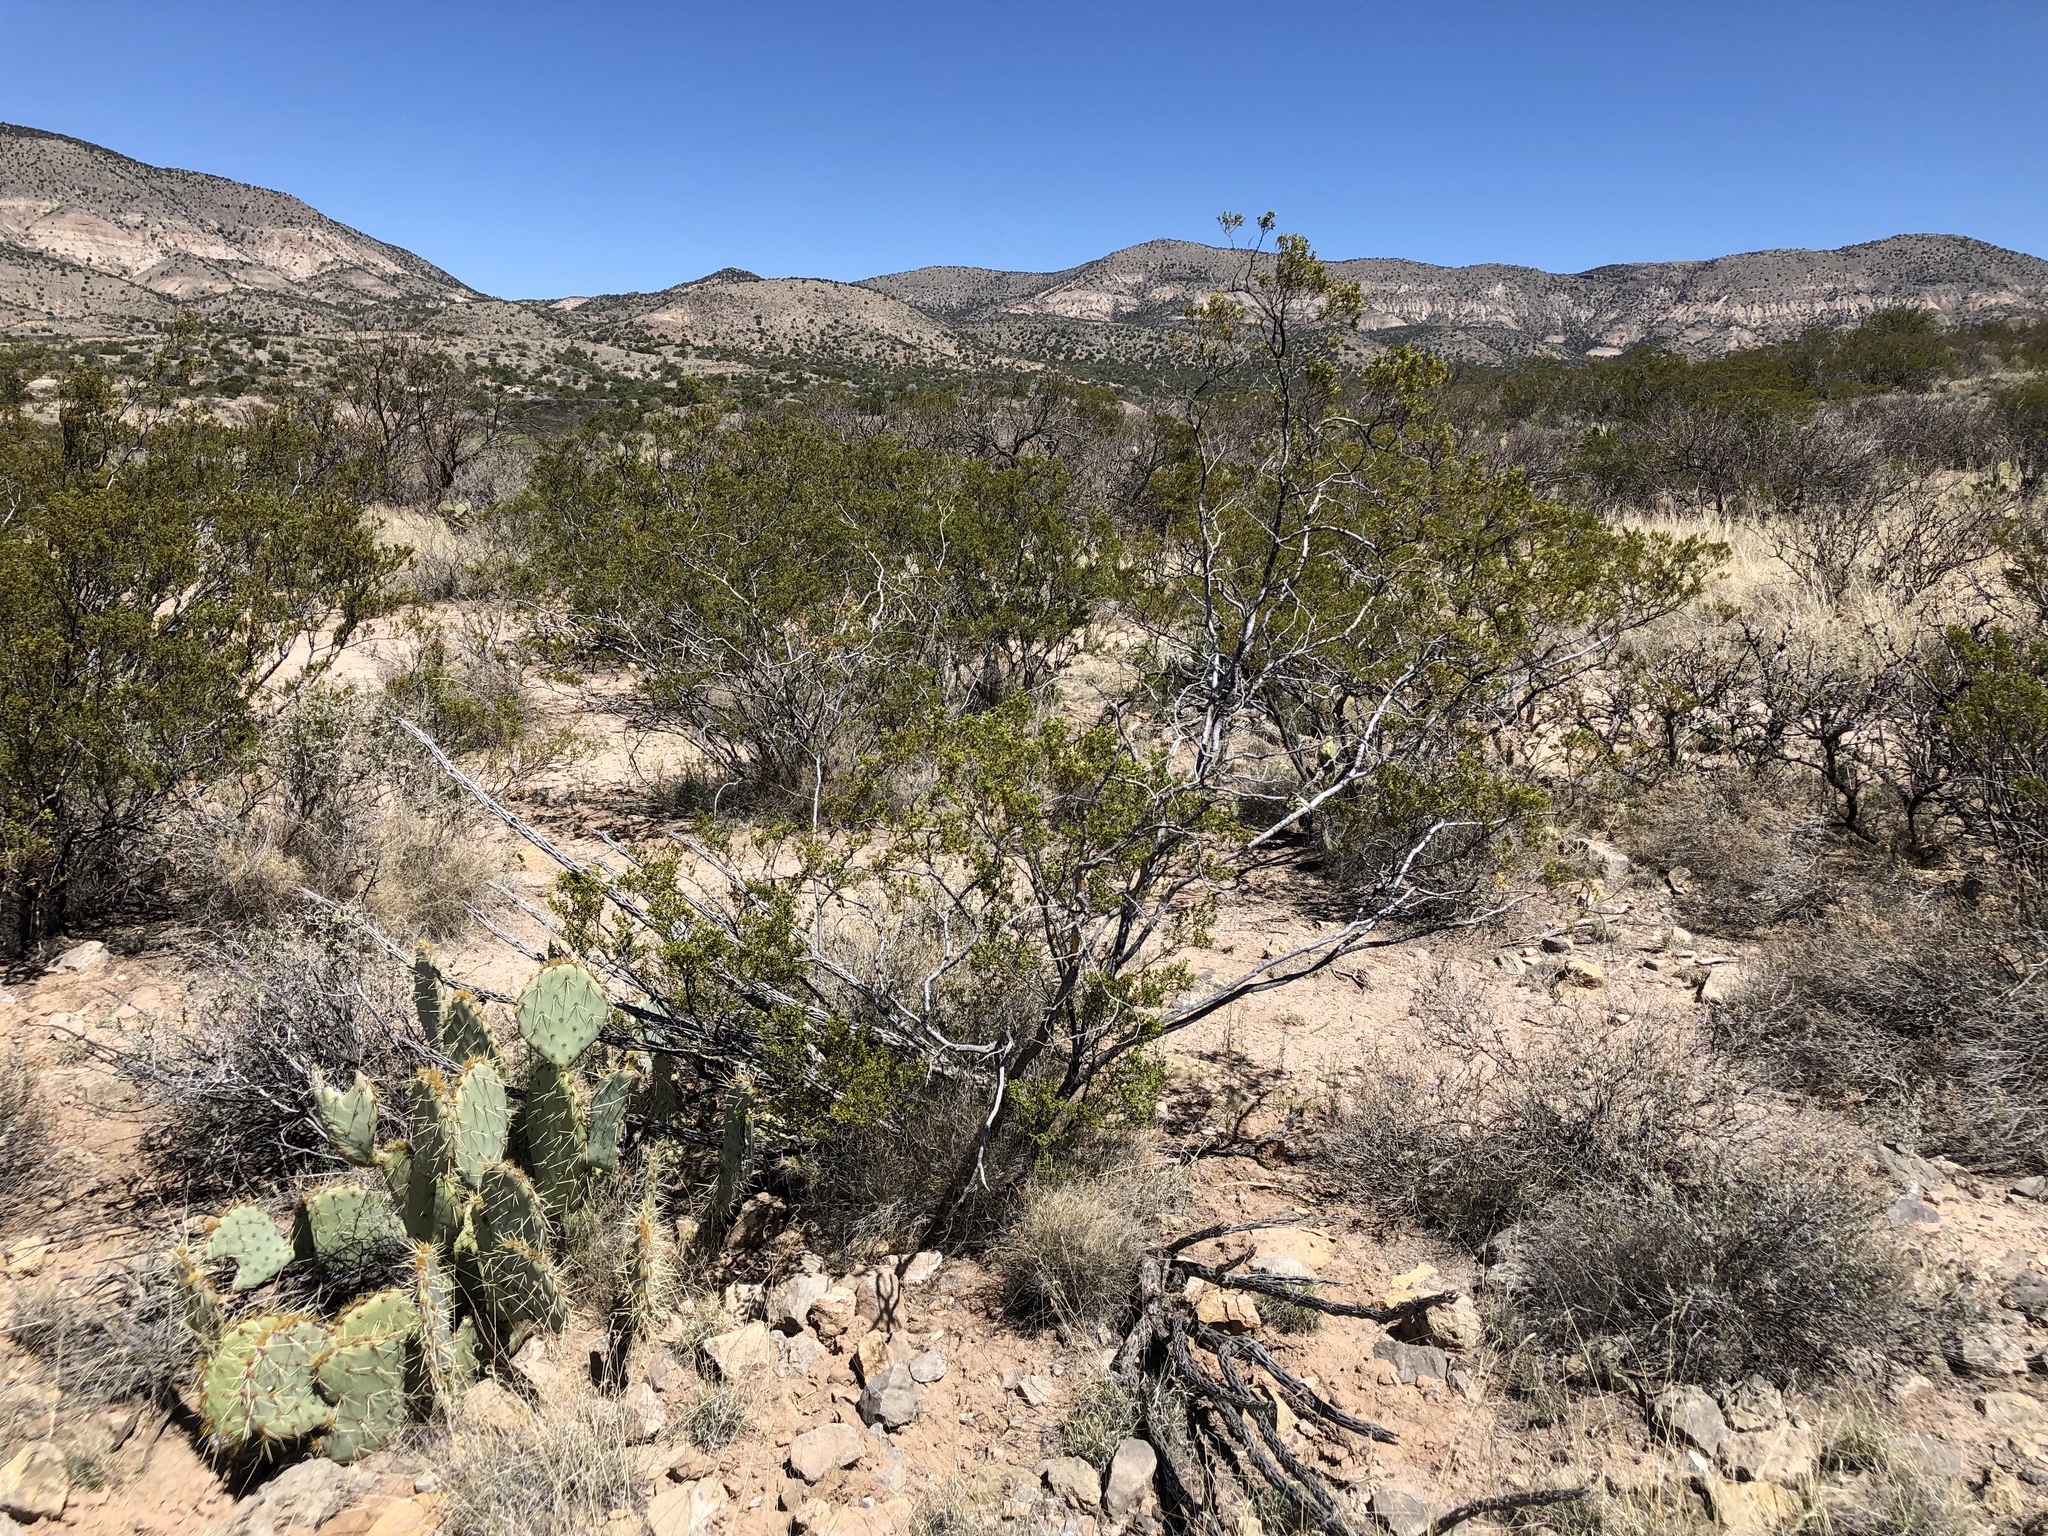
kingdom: Plantae
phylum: Tracheophyta
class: Magnoliopsida
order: Zygophyllales
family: Zygophyllaceae
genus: Larrea
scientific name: Larrea tridentata
